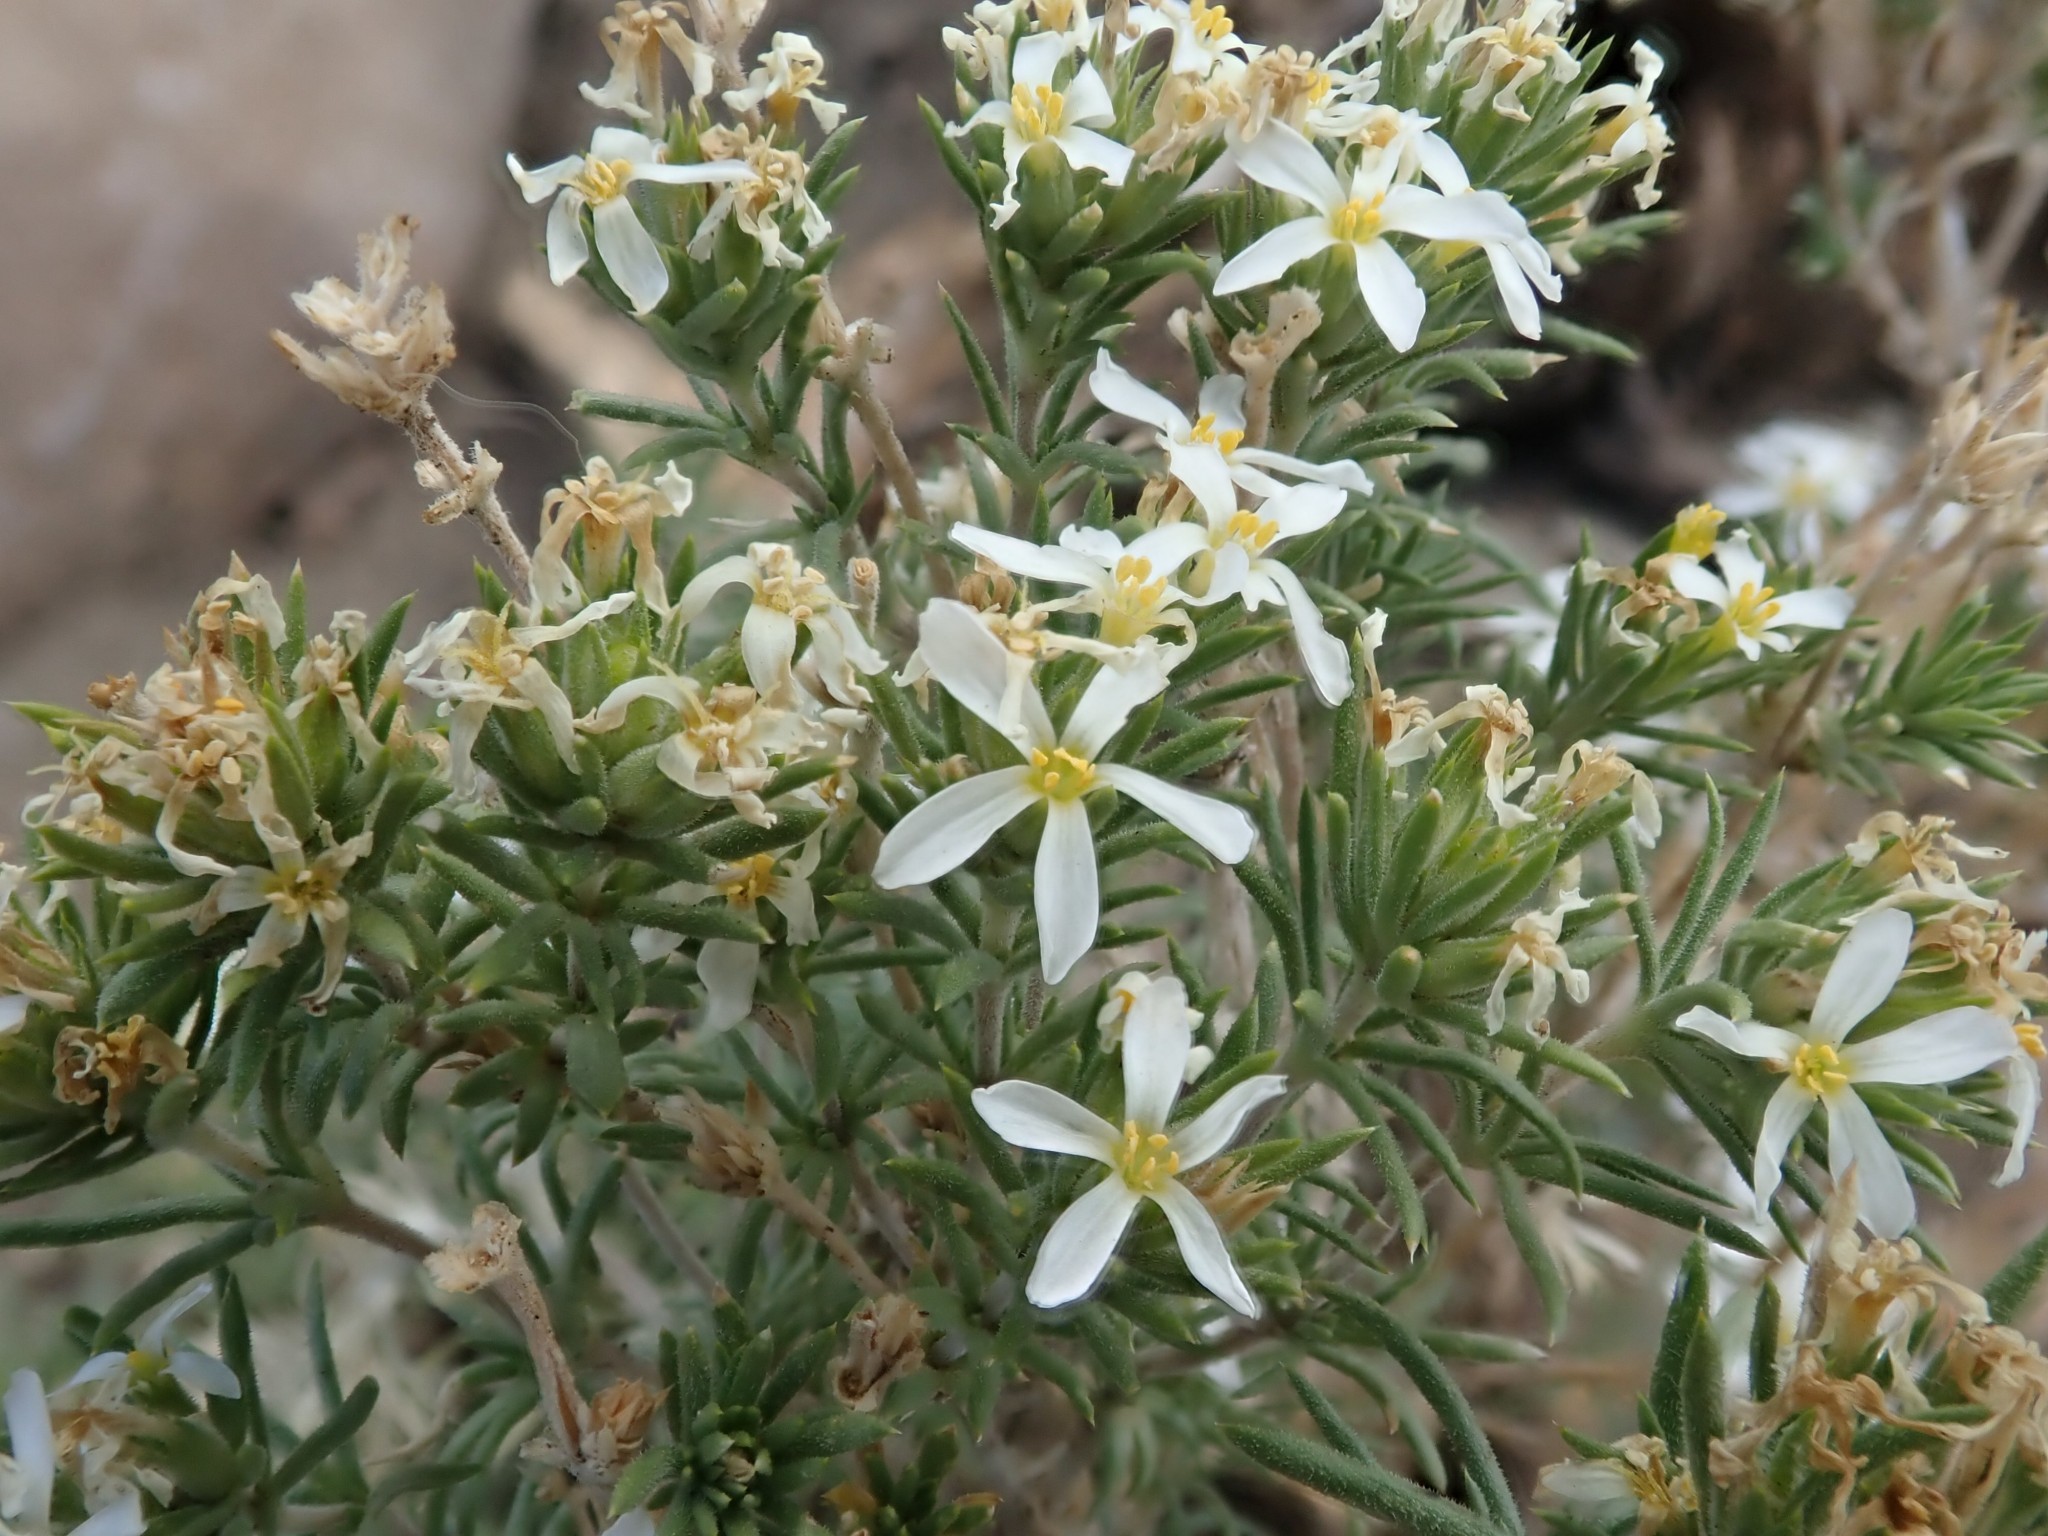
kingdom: Plantae
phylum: Tracheophyta
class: Magnoliopsida
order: Ericales
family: Polemoniaceae
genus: Leptosiphon
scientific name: Leptosiphon nuttallii
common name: Nuttall's linanthus
